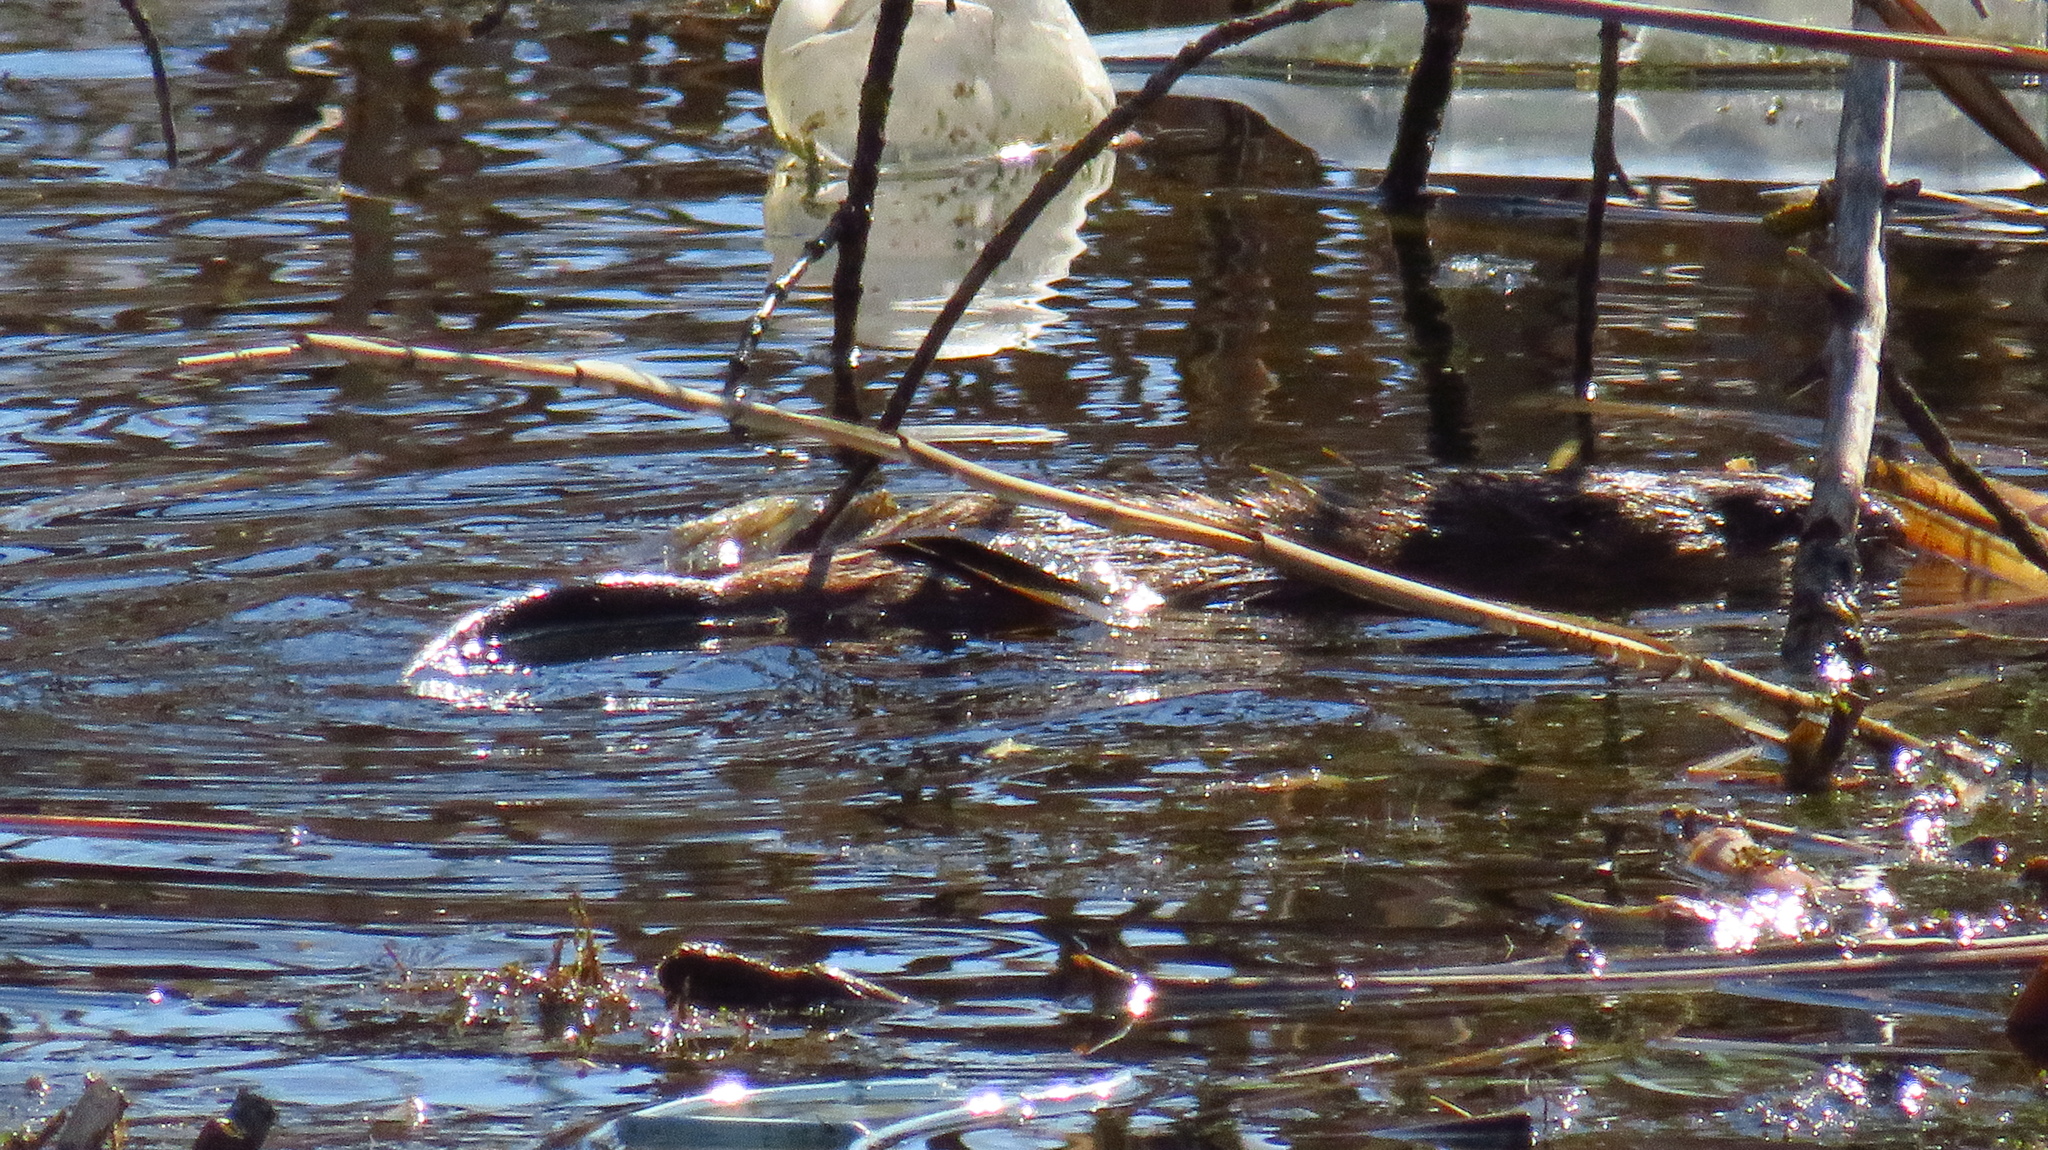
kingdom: Animalia
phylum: Chordata
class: Mammalia
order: Rodentia
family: Cricetidae
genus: Ondatra
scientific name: Ondatra zibethicus
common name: Muskrat
